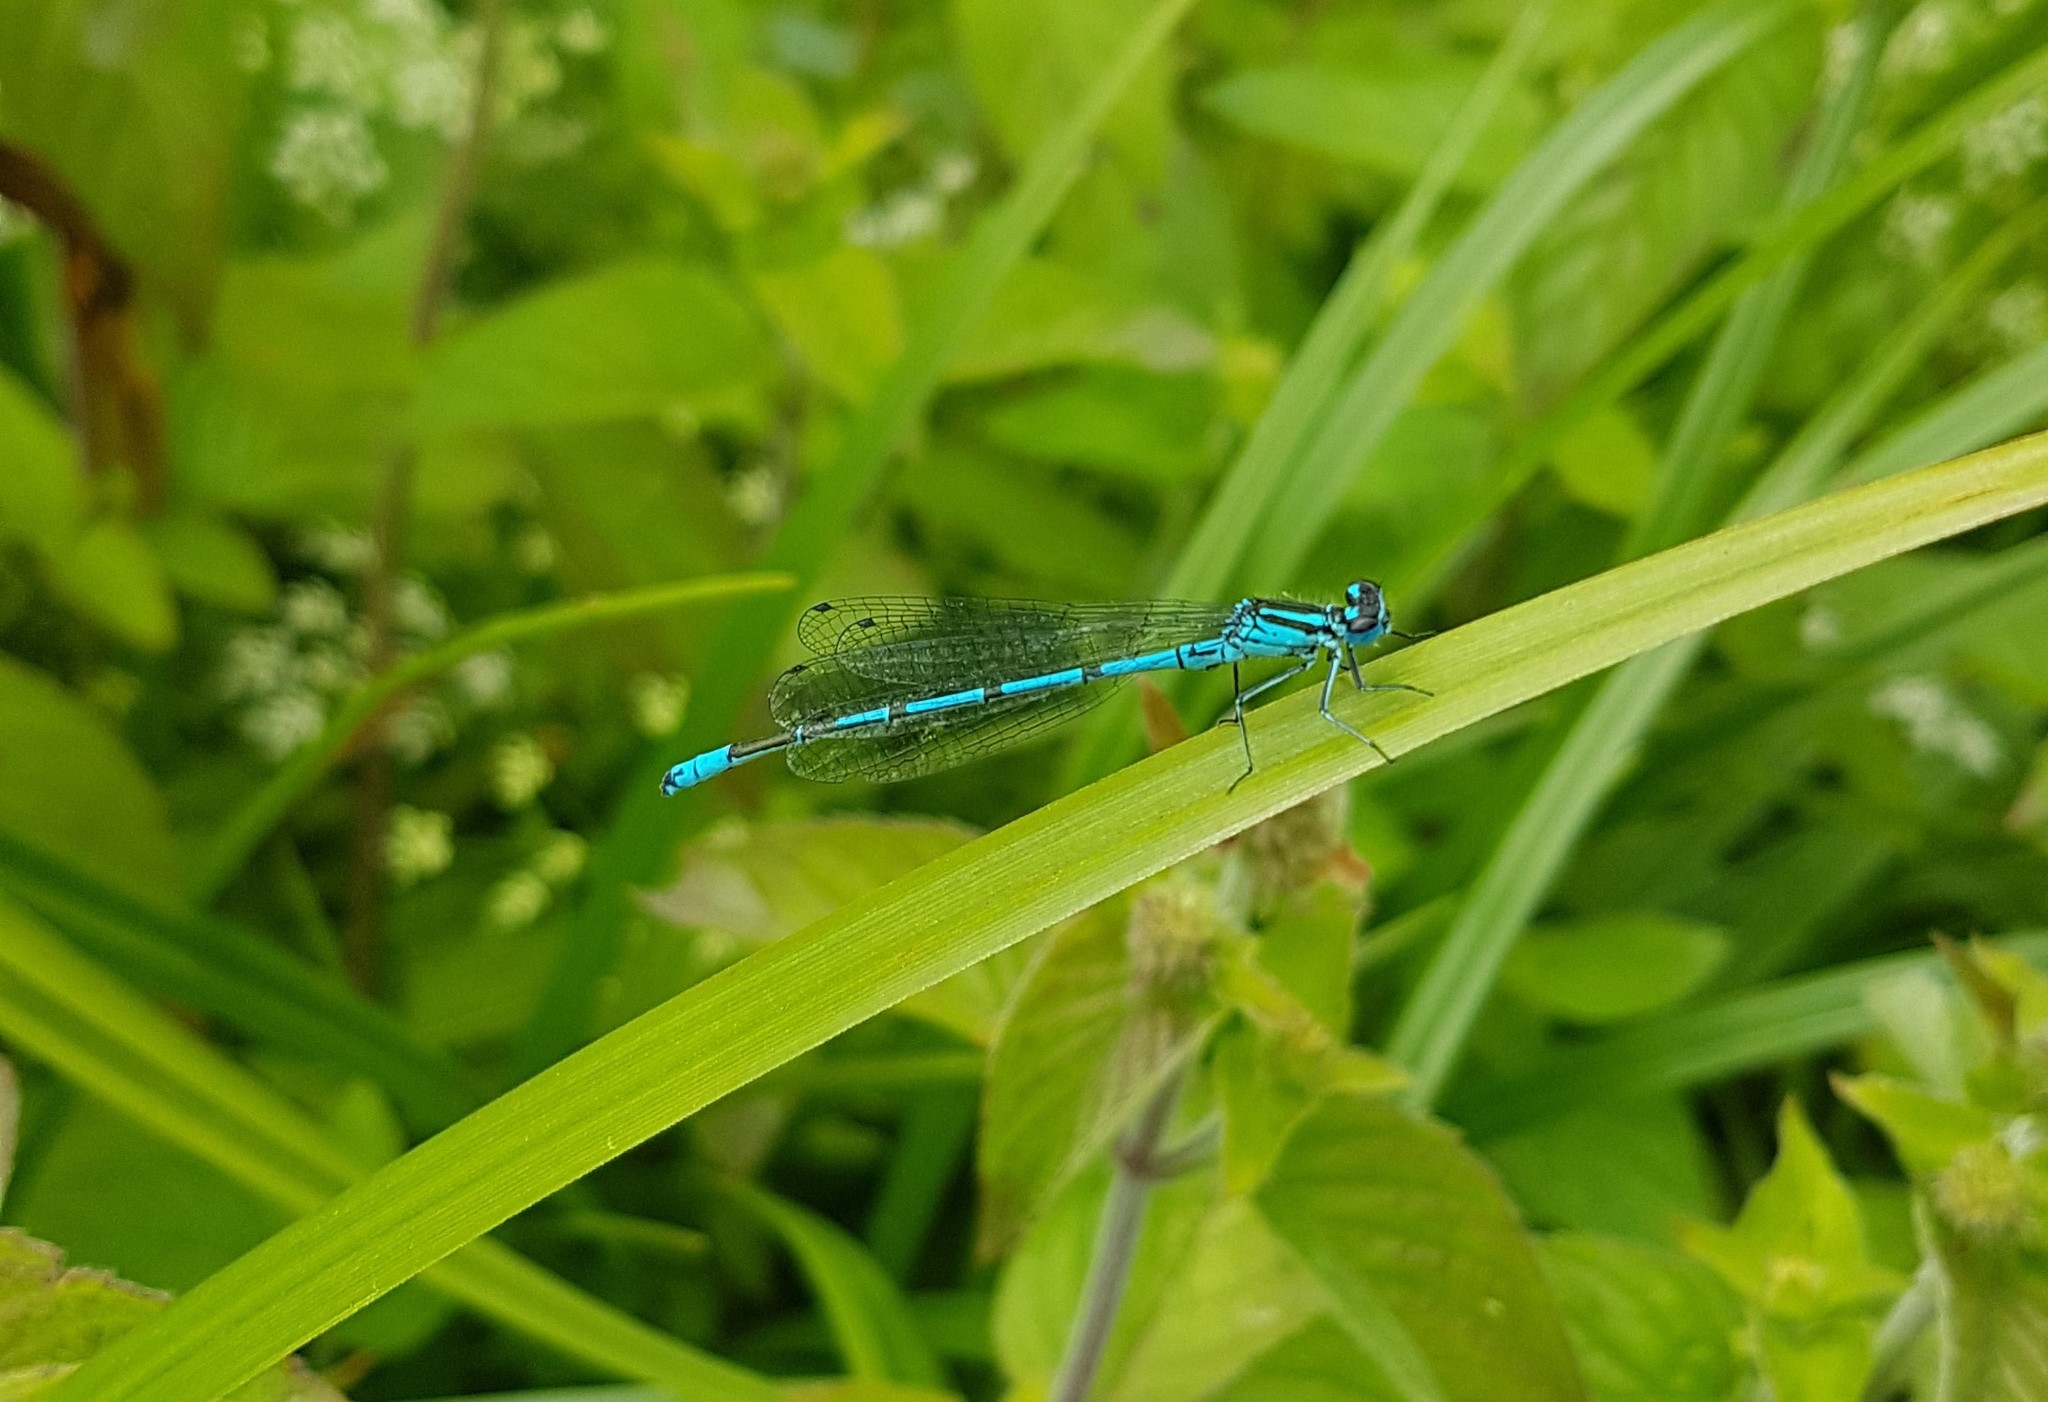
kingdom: Animalia
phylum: Arthropoda
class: Insecta
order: Odonata
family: Coenagrionidae
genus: Coenagrion
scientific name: Coenagrion puella
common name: Azure damselfly
